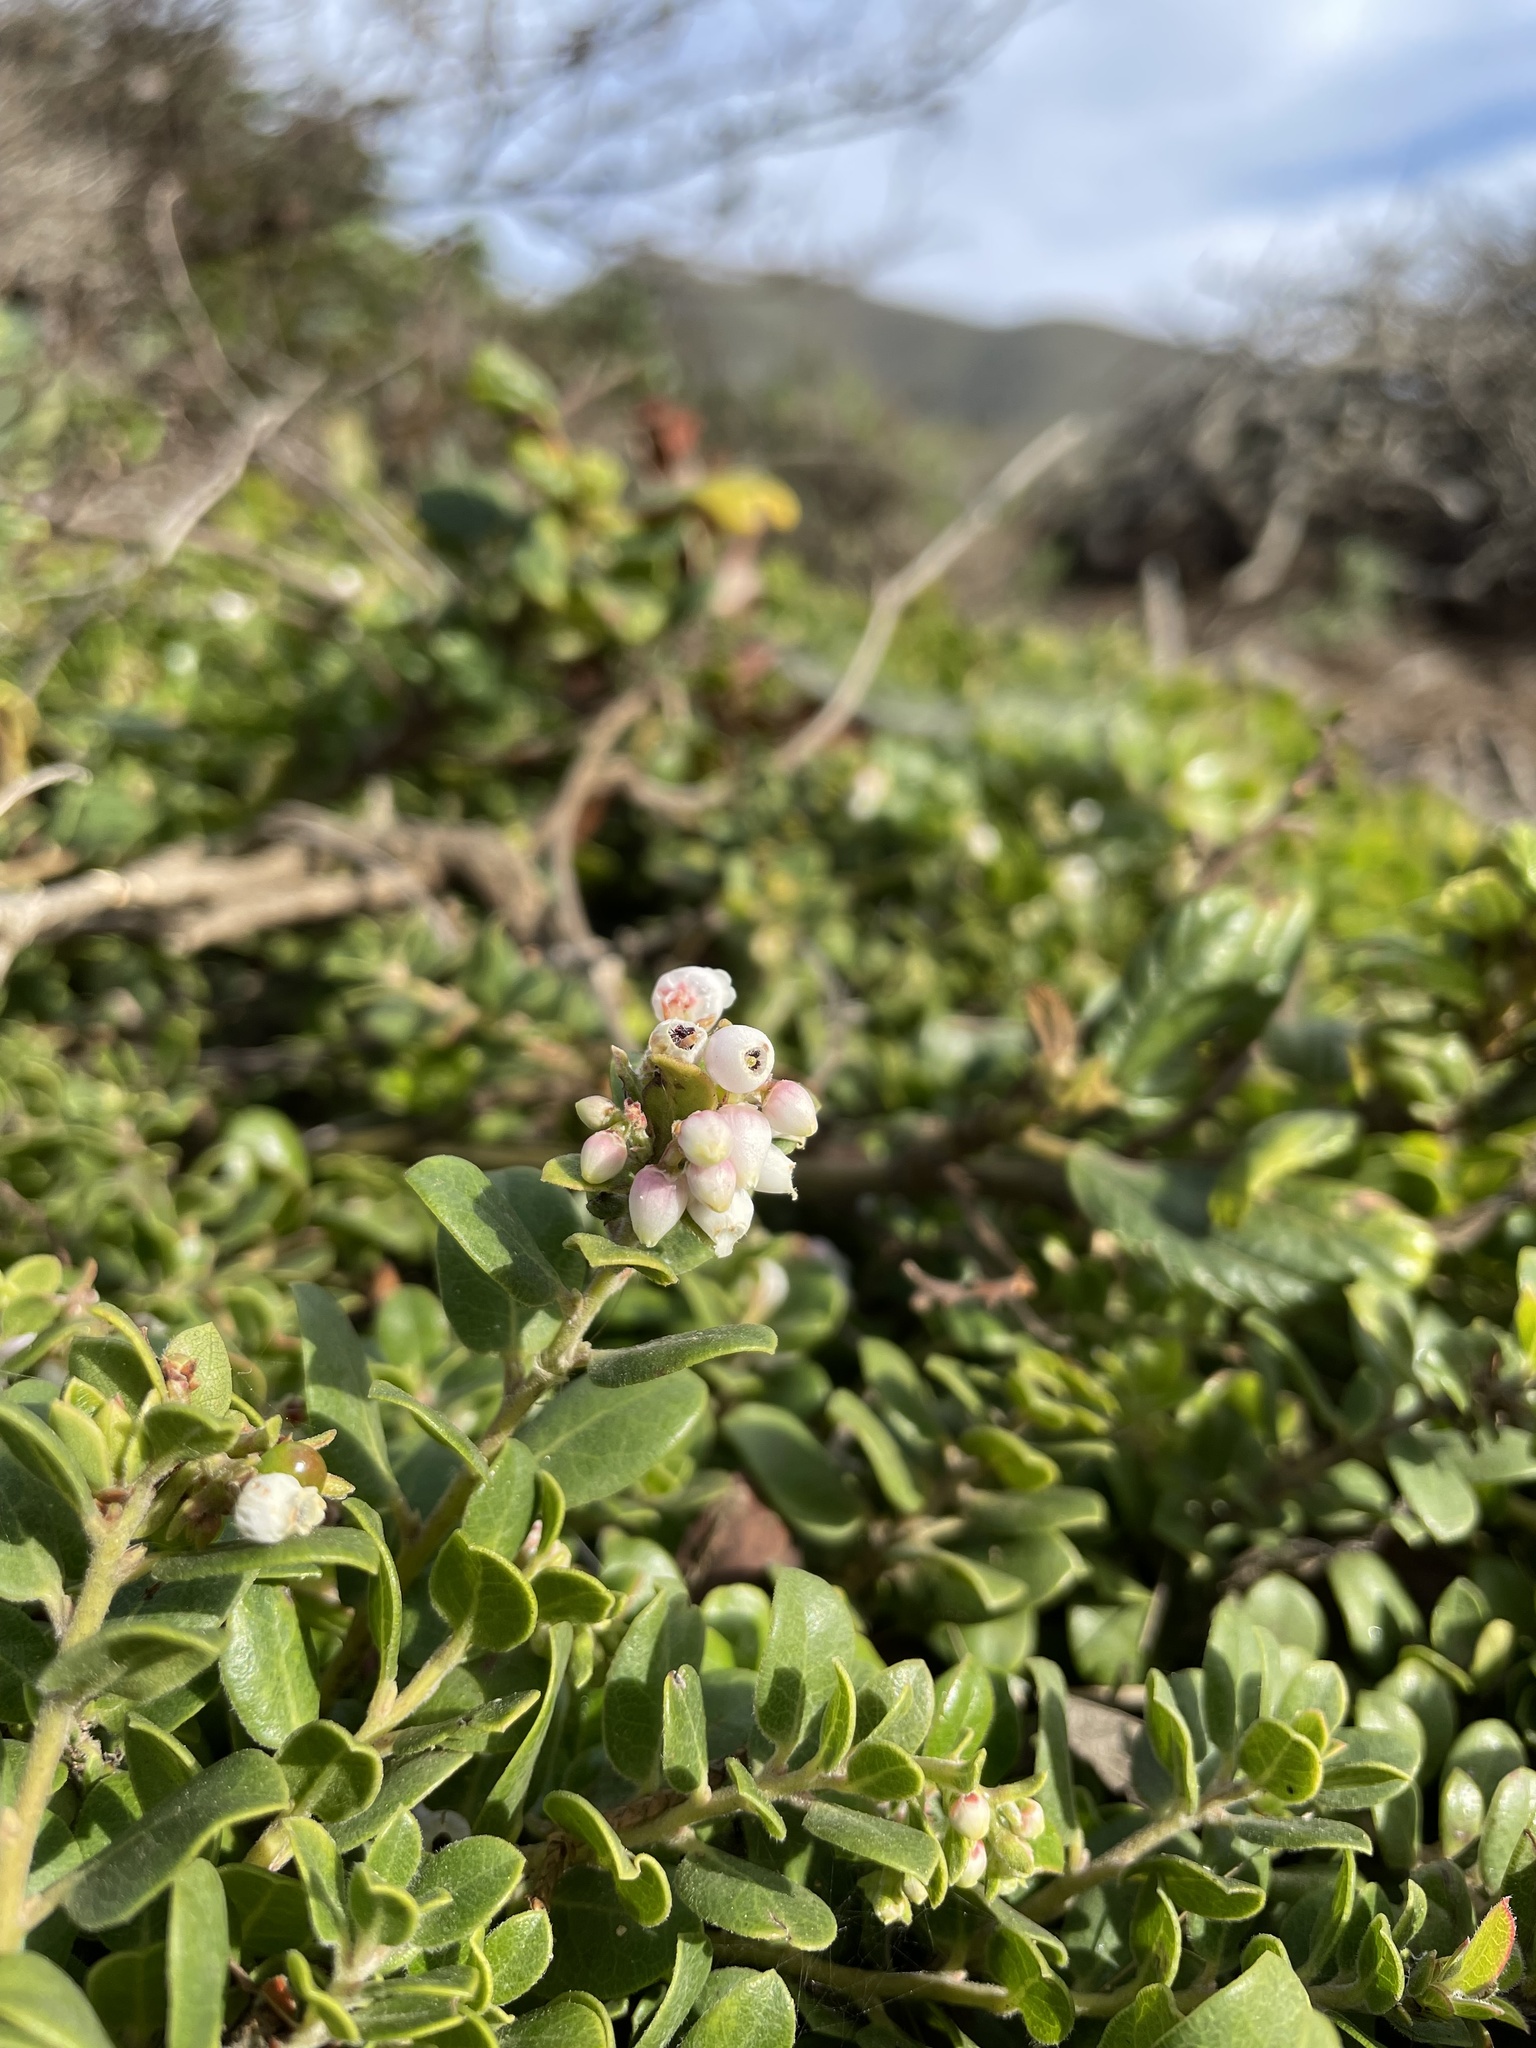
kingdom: Plantae
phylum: Tracheophyta
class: Magnoliopsida
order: Ericales
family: Ericaceae
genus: Arctostaphylos
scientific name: Arctostaphylos edmundsii
